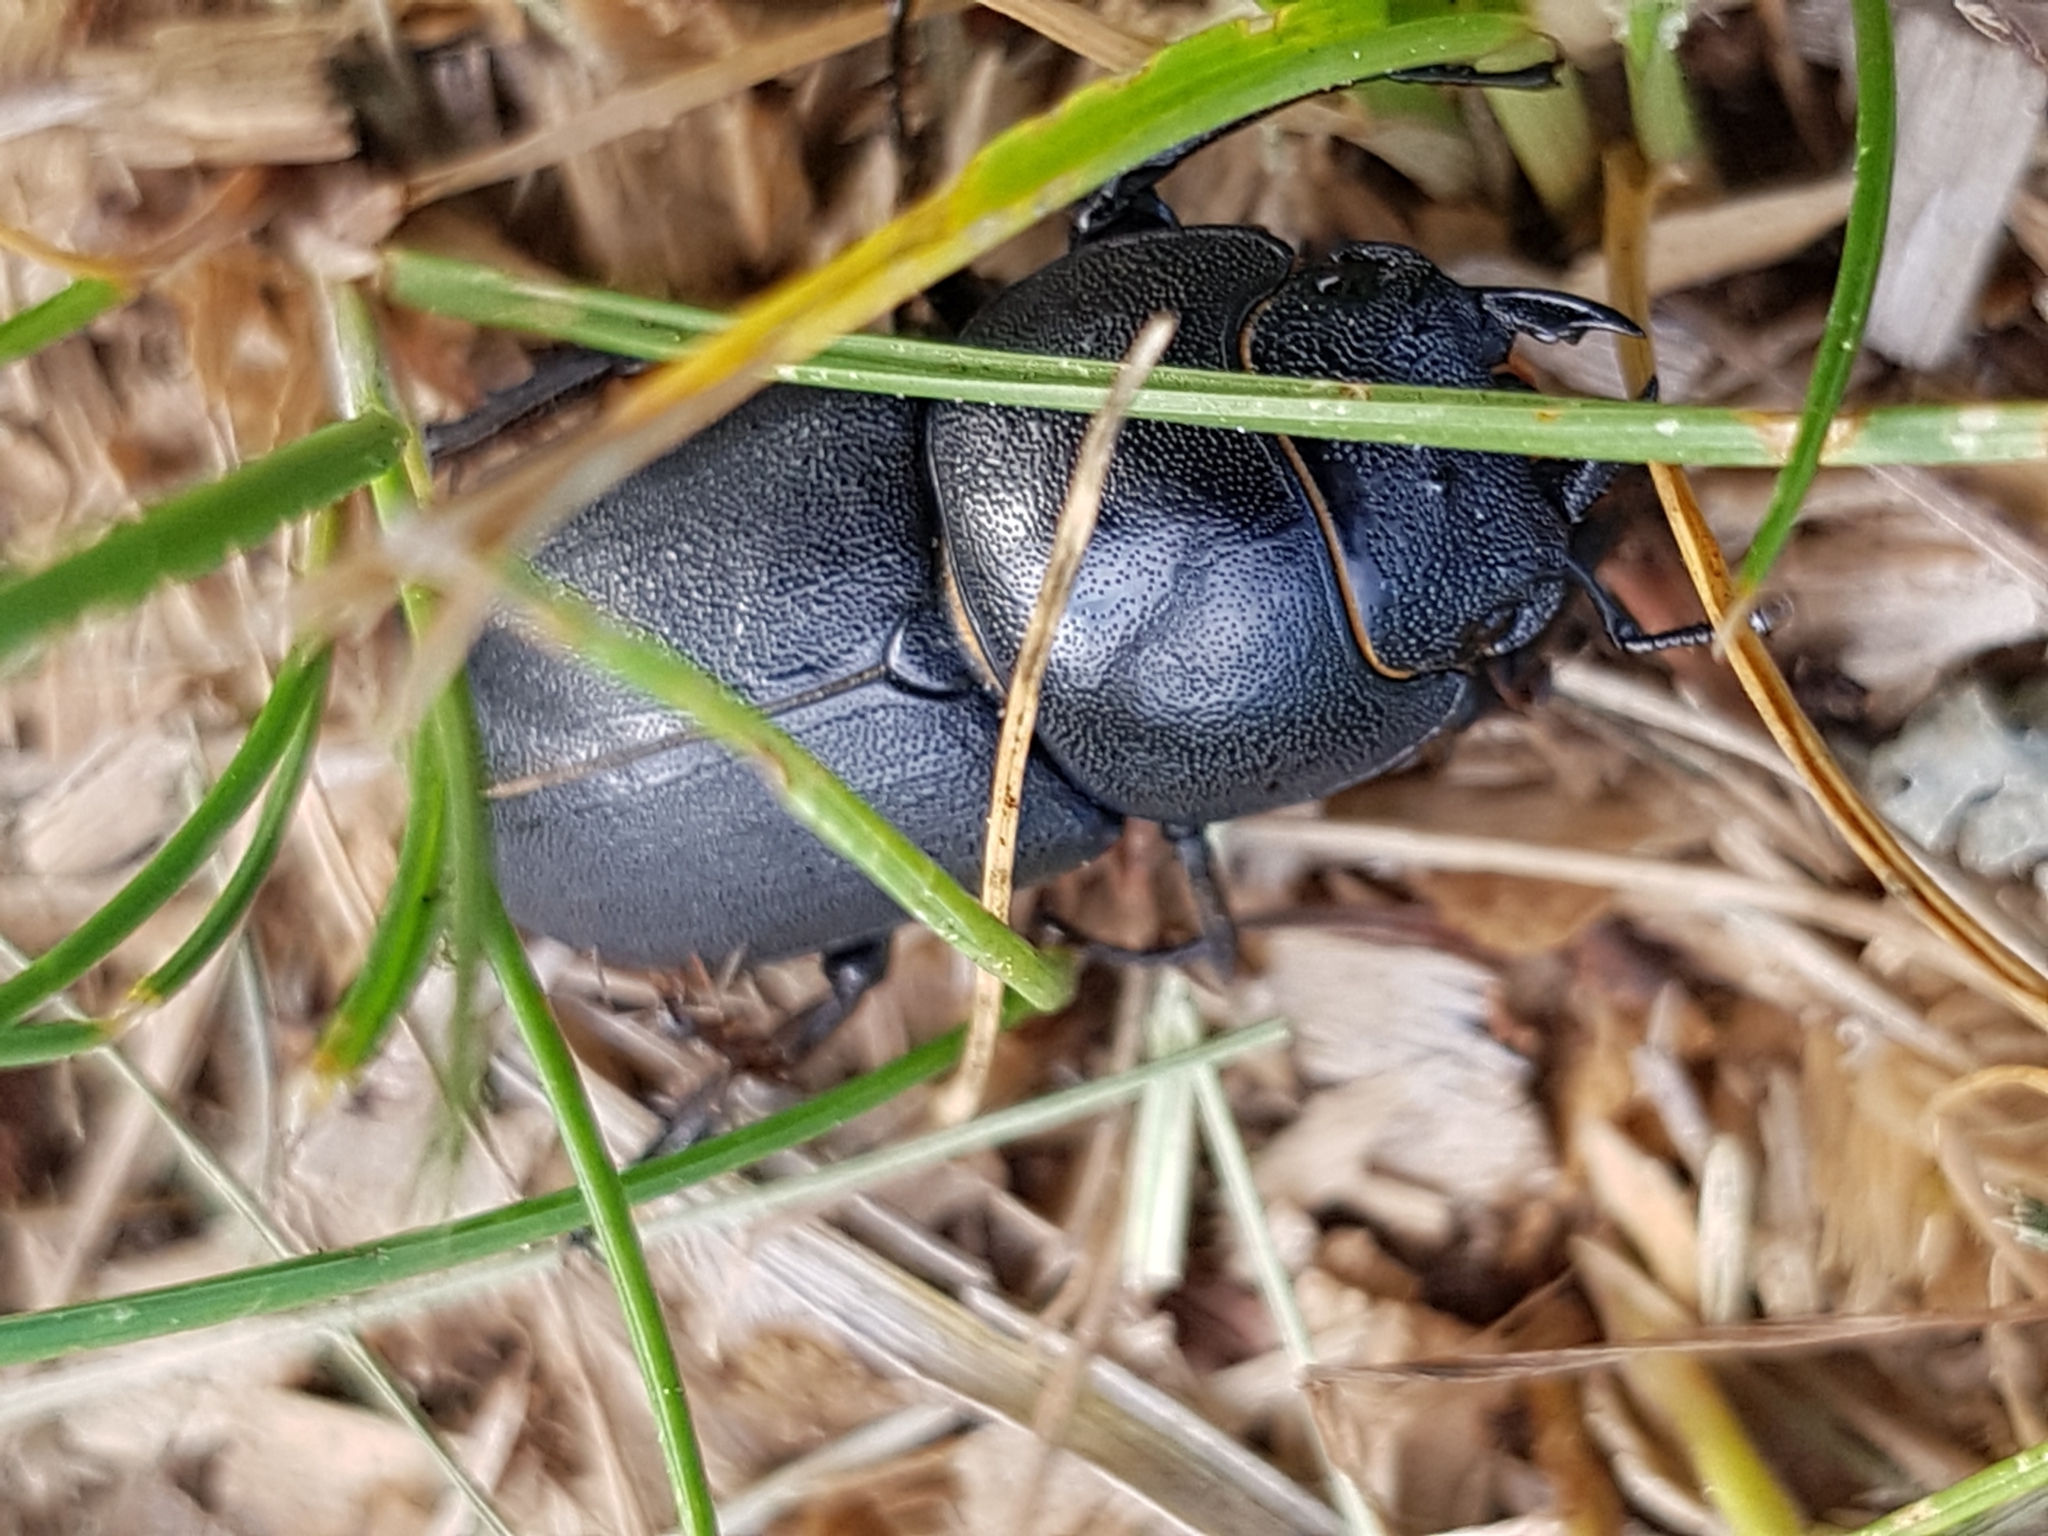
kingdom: Animalia
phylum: Arthropoda
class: Insecta
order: Coleoptera
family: Lucanidae
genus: Dorcus
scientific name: Dorcus parallelipipedus
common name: Lesser stag beetle
